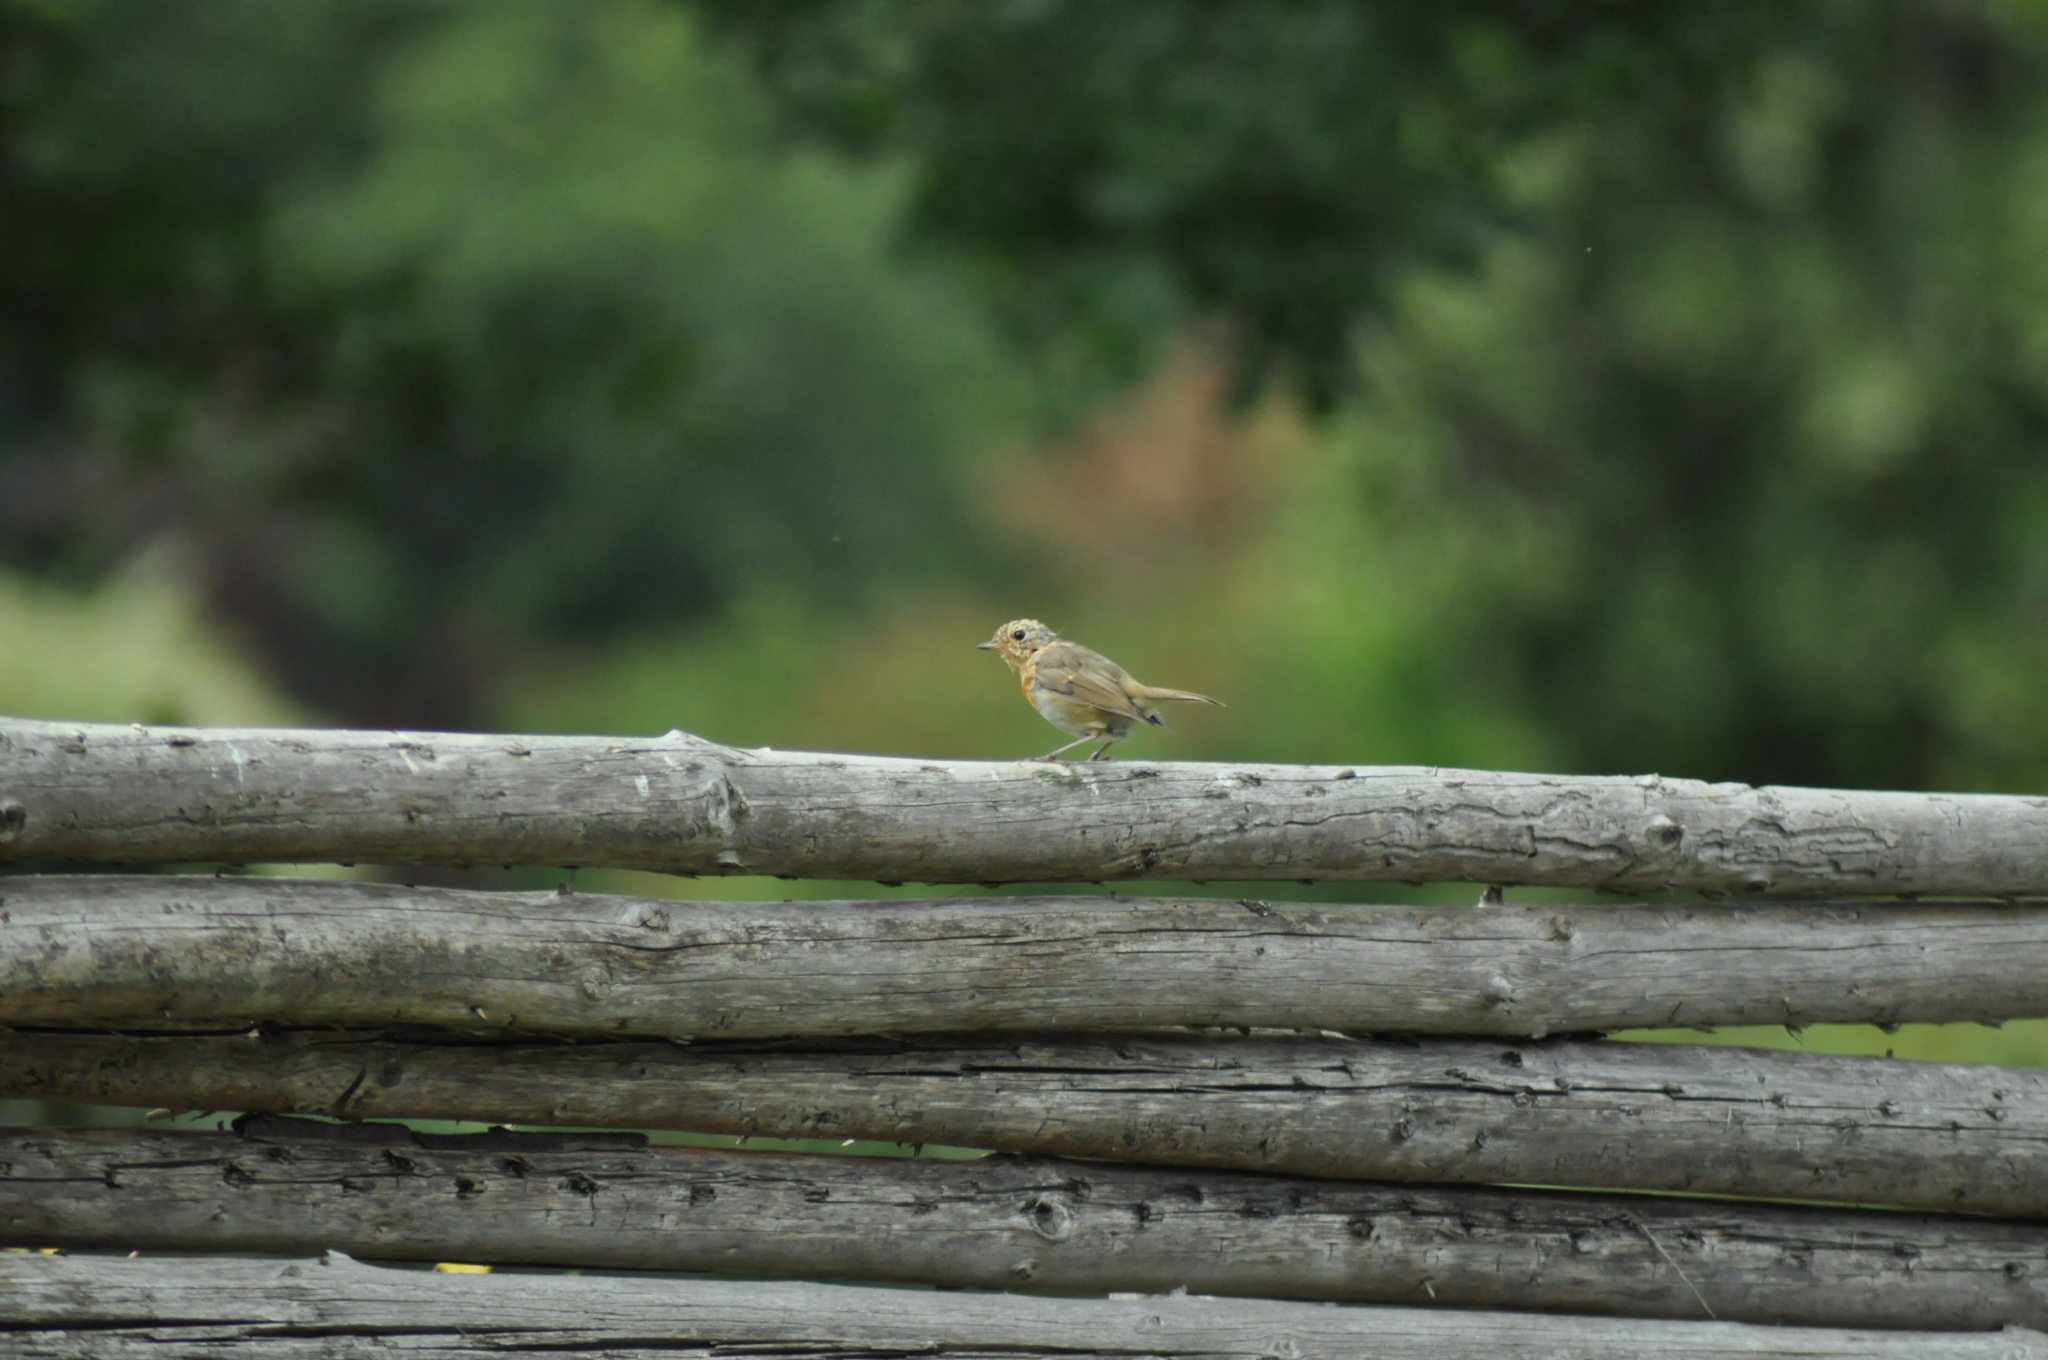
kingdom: Animalia
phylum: Chordata
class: Aves
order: Passeriformes
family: Muscicapidae
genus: Erithacus
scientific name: Erithacus rubecula
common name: European robin
